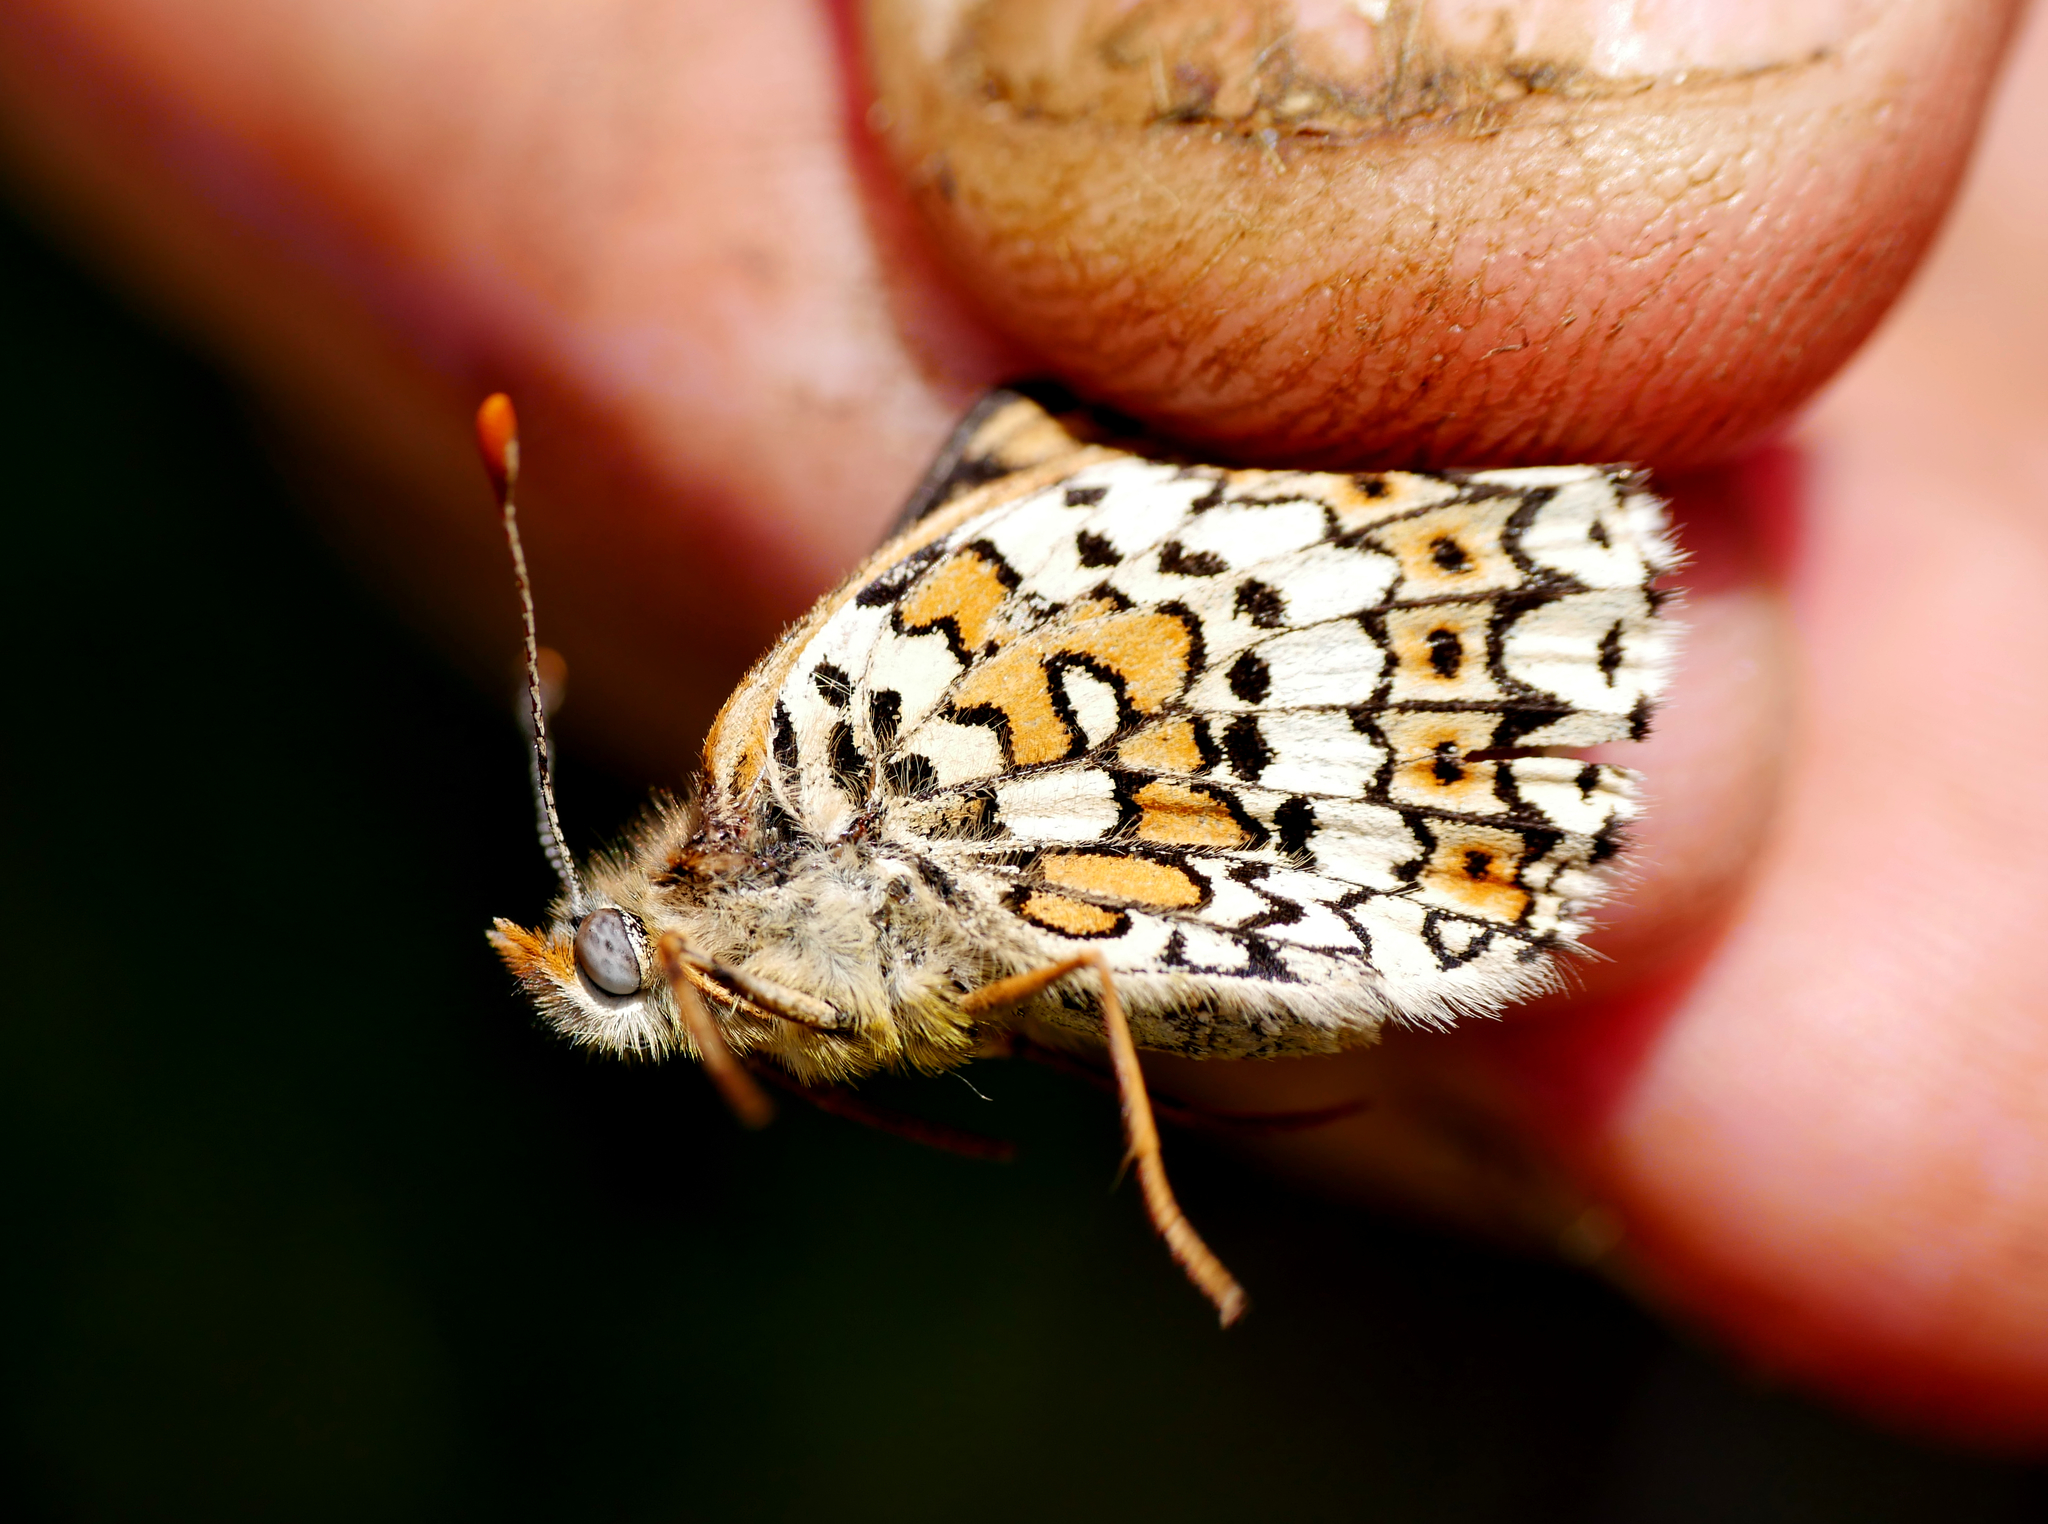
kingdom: Animalia
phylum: Arthropoda
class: Insecta
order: Lepidoptera
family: Nymphalidae
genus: Melitaea
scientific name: Melitaea cinxia
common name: Glanville fritillary
